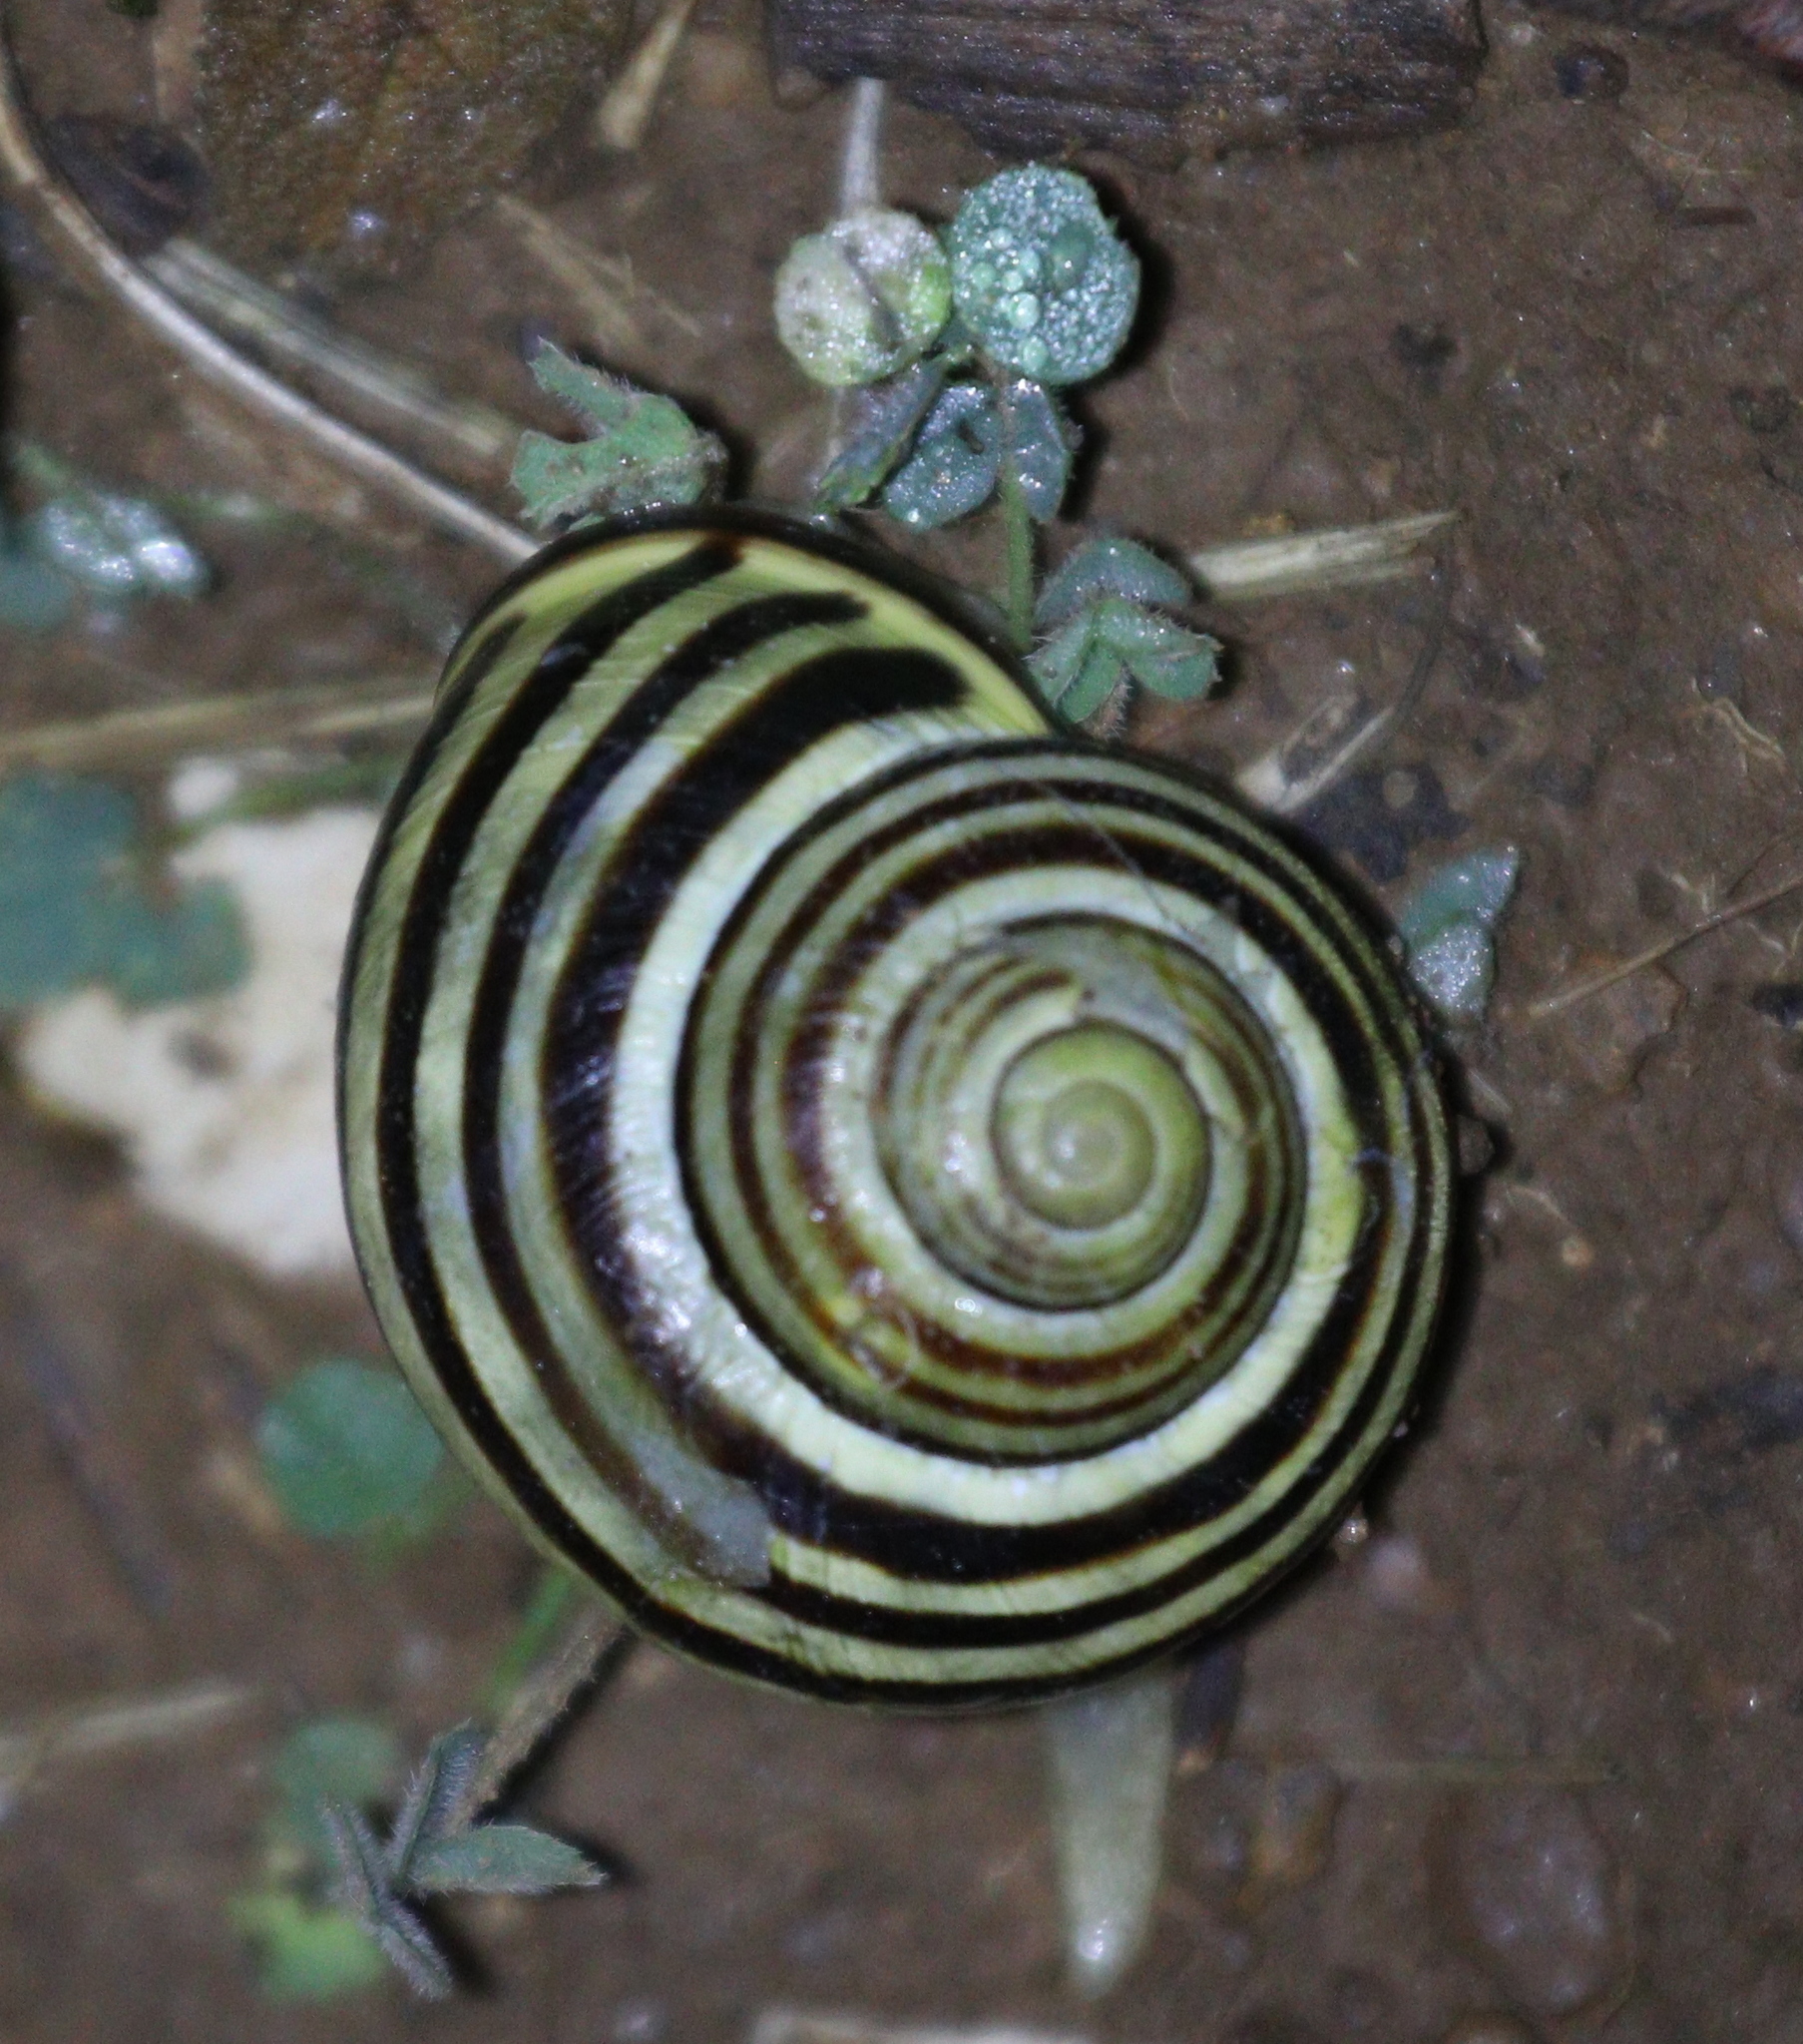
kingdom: Animalia
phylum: Mollusca
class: Gastropoda
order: Stylommatophora
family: Helicidae
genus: Cepaea
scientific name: Cepaea nemoralis
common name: Grovesnail
